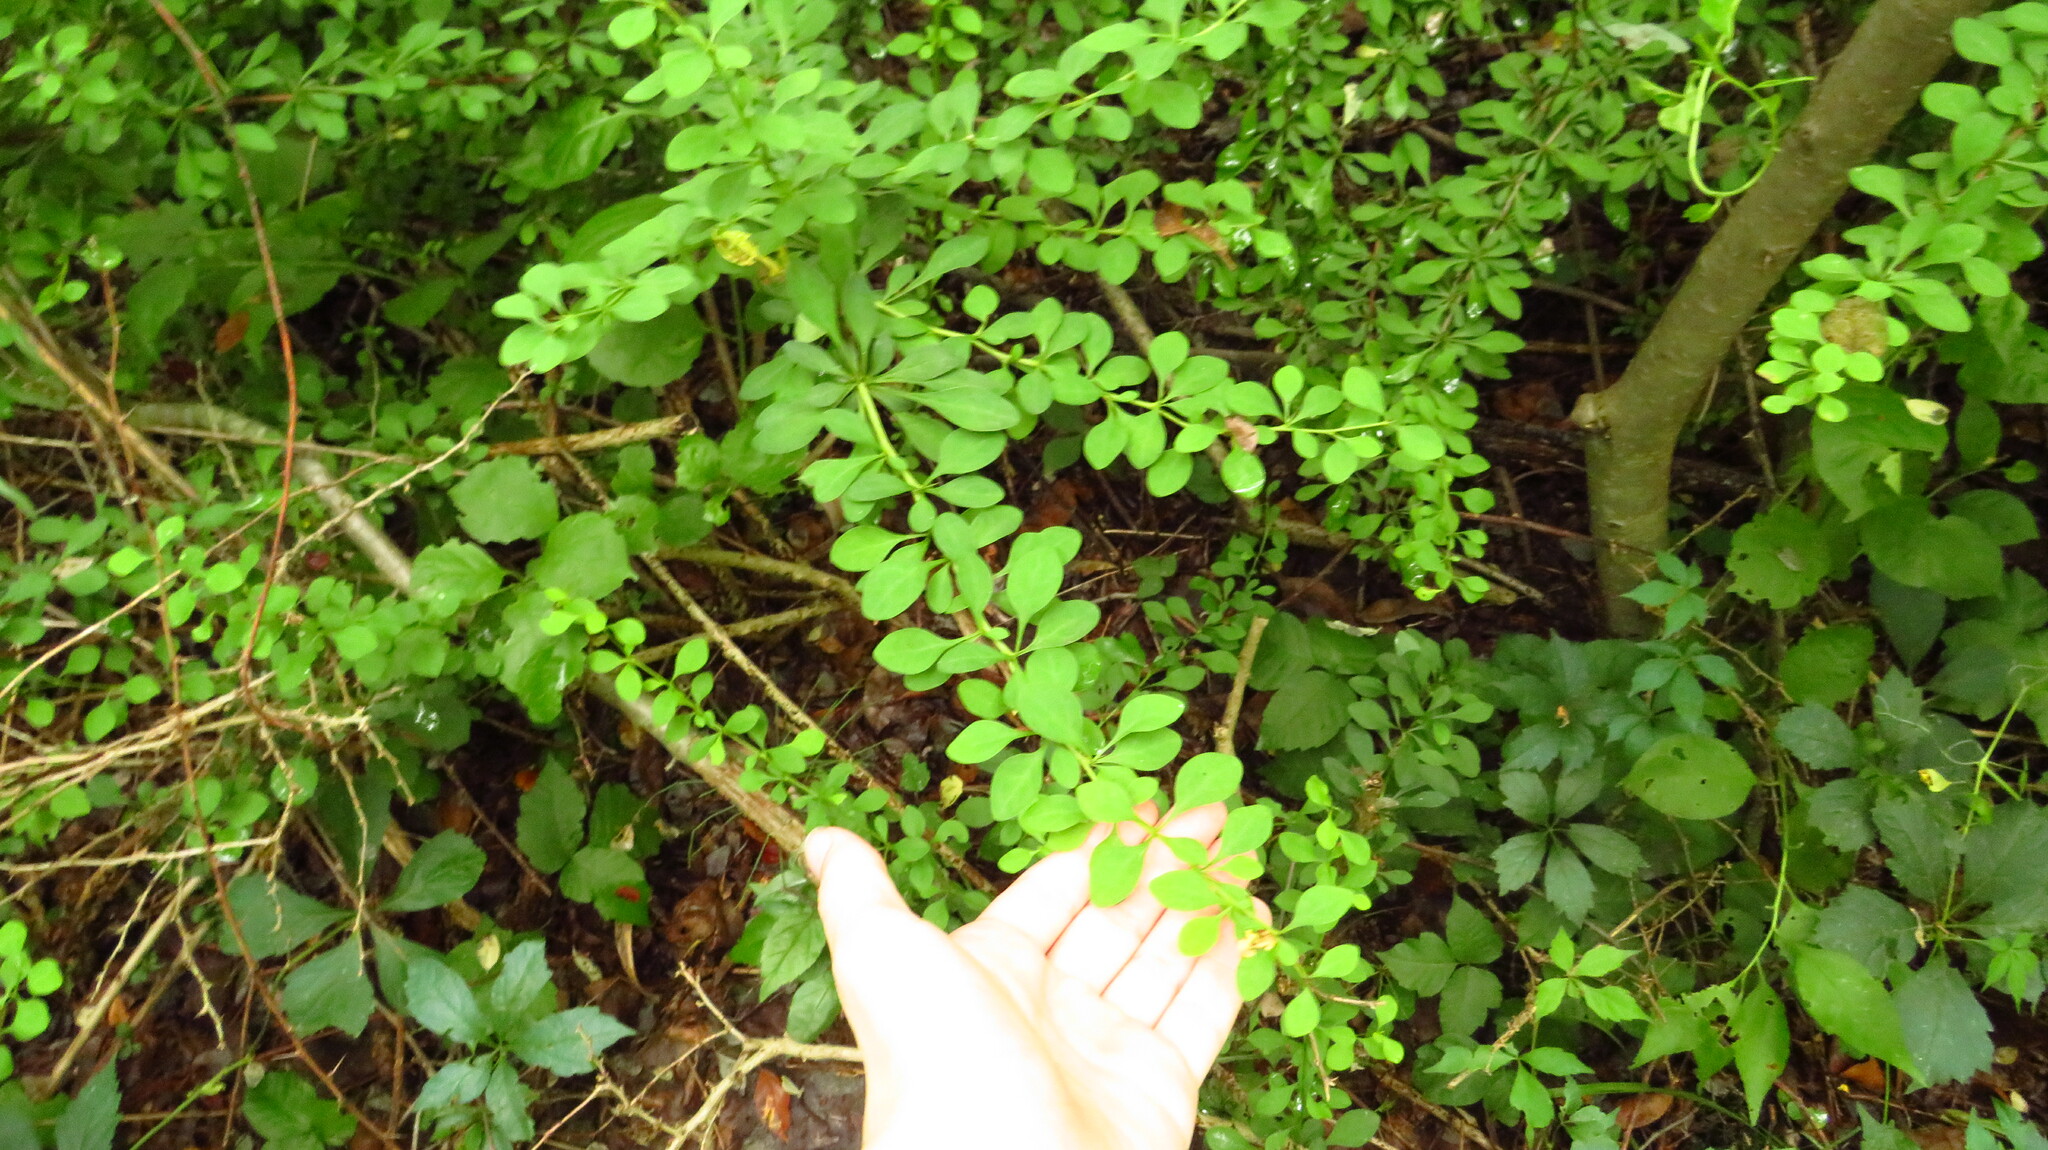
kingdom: Plantae
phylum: Tracheophyta
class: Magnoliopsida
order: Ranunculales
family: Berberidaceae
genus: Berberis
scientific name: Berberis thunbergii
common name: Japanese barberry
